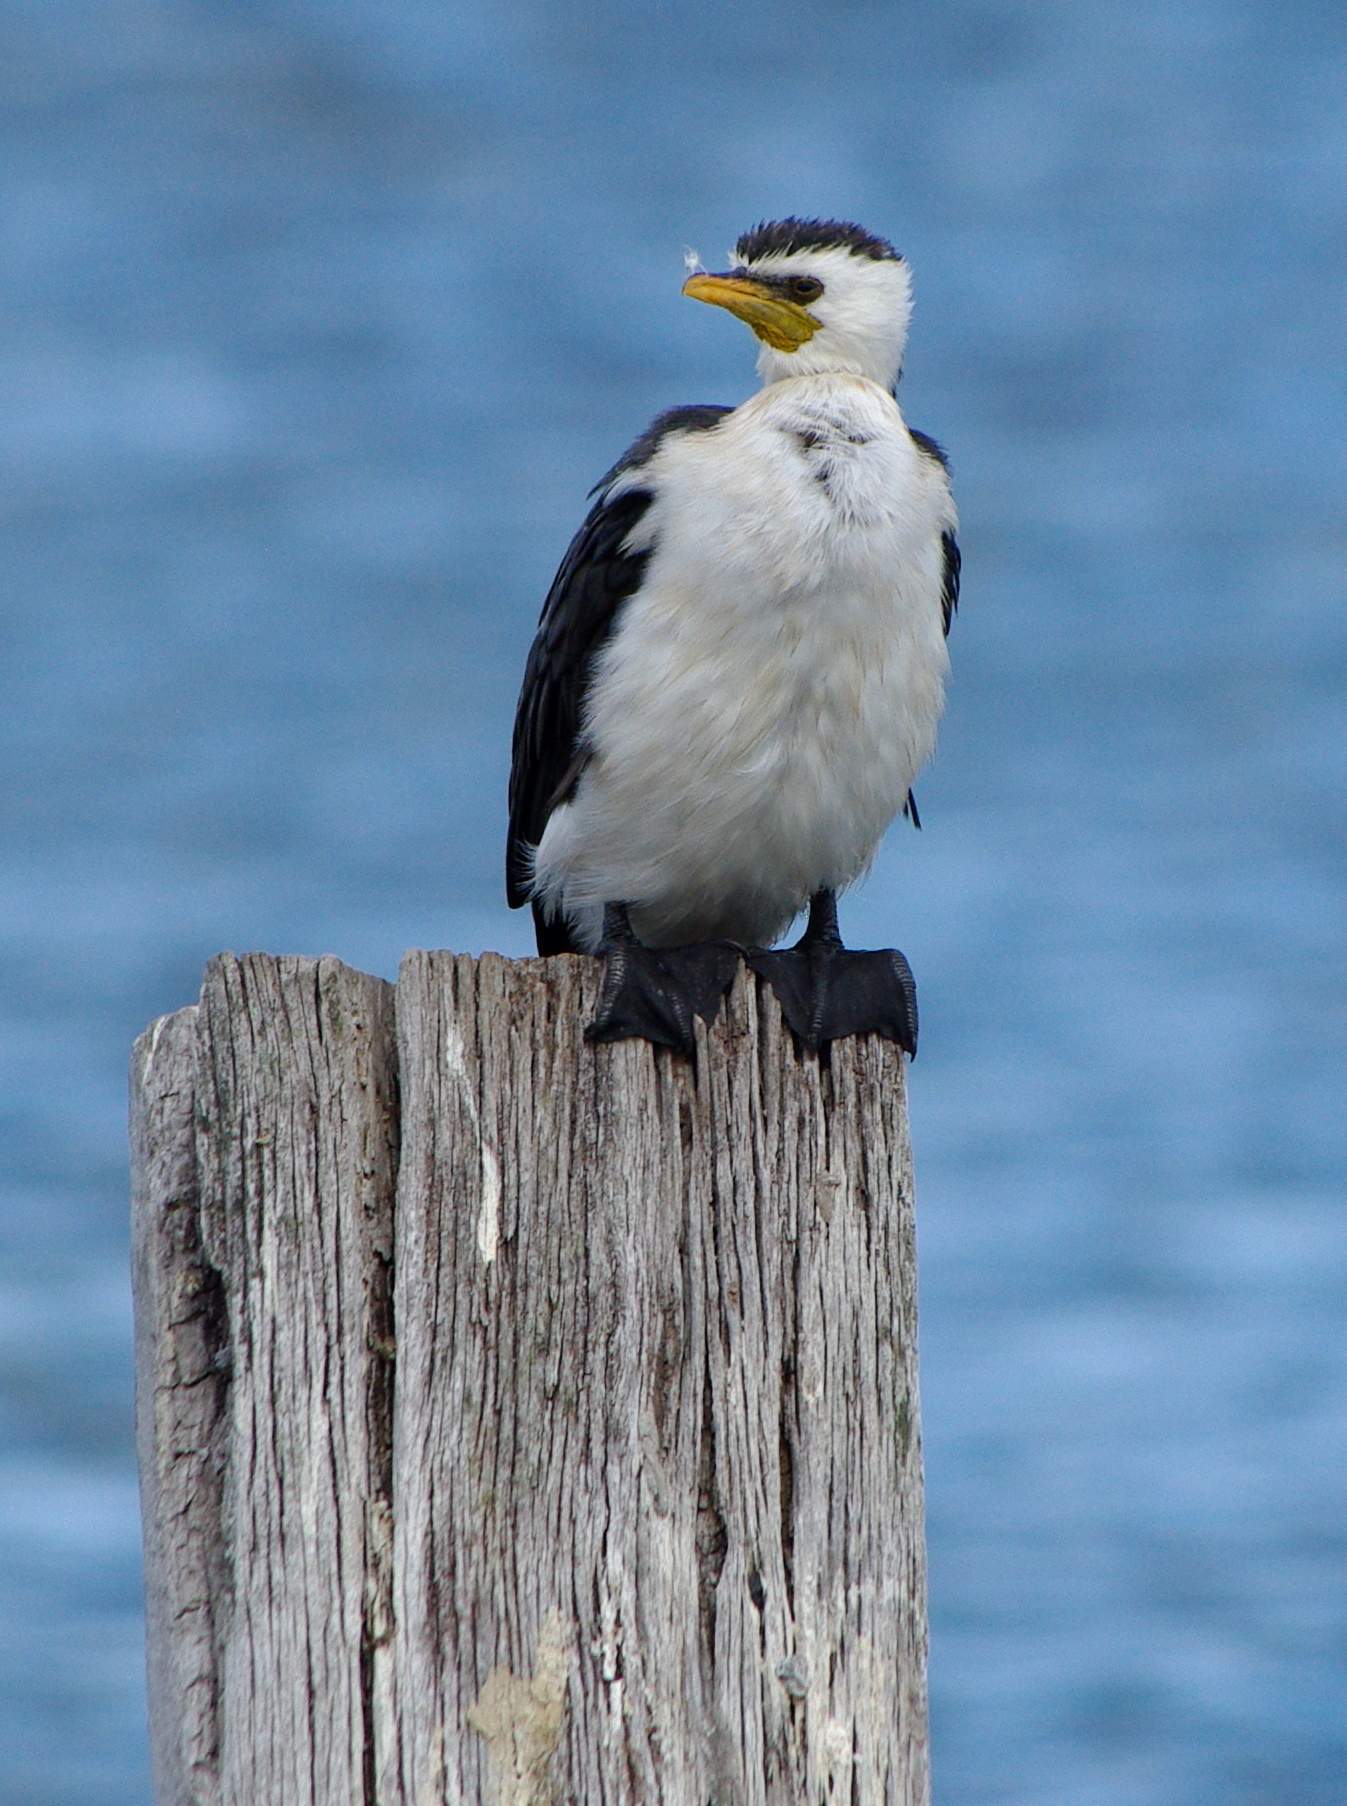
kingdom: Animalia
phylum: Chordata
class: Aves
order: Suliformes
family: Phalacrocoracidae
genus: Microcarbo
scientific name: Microcarbo melanoleucos
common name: Little pied cormorant
